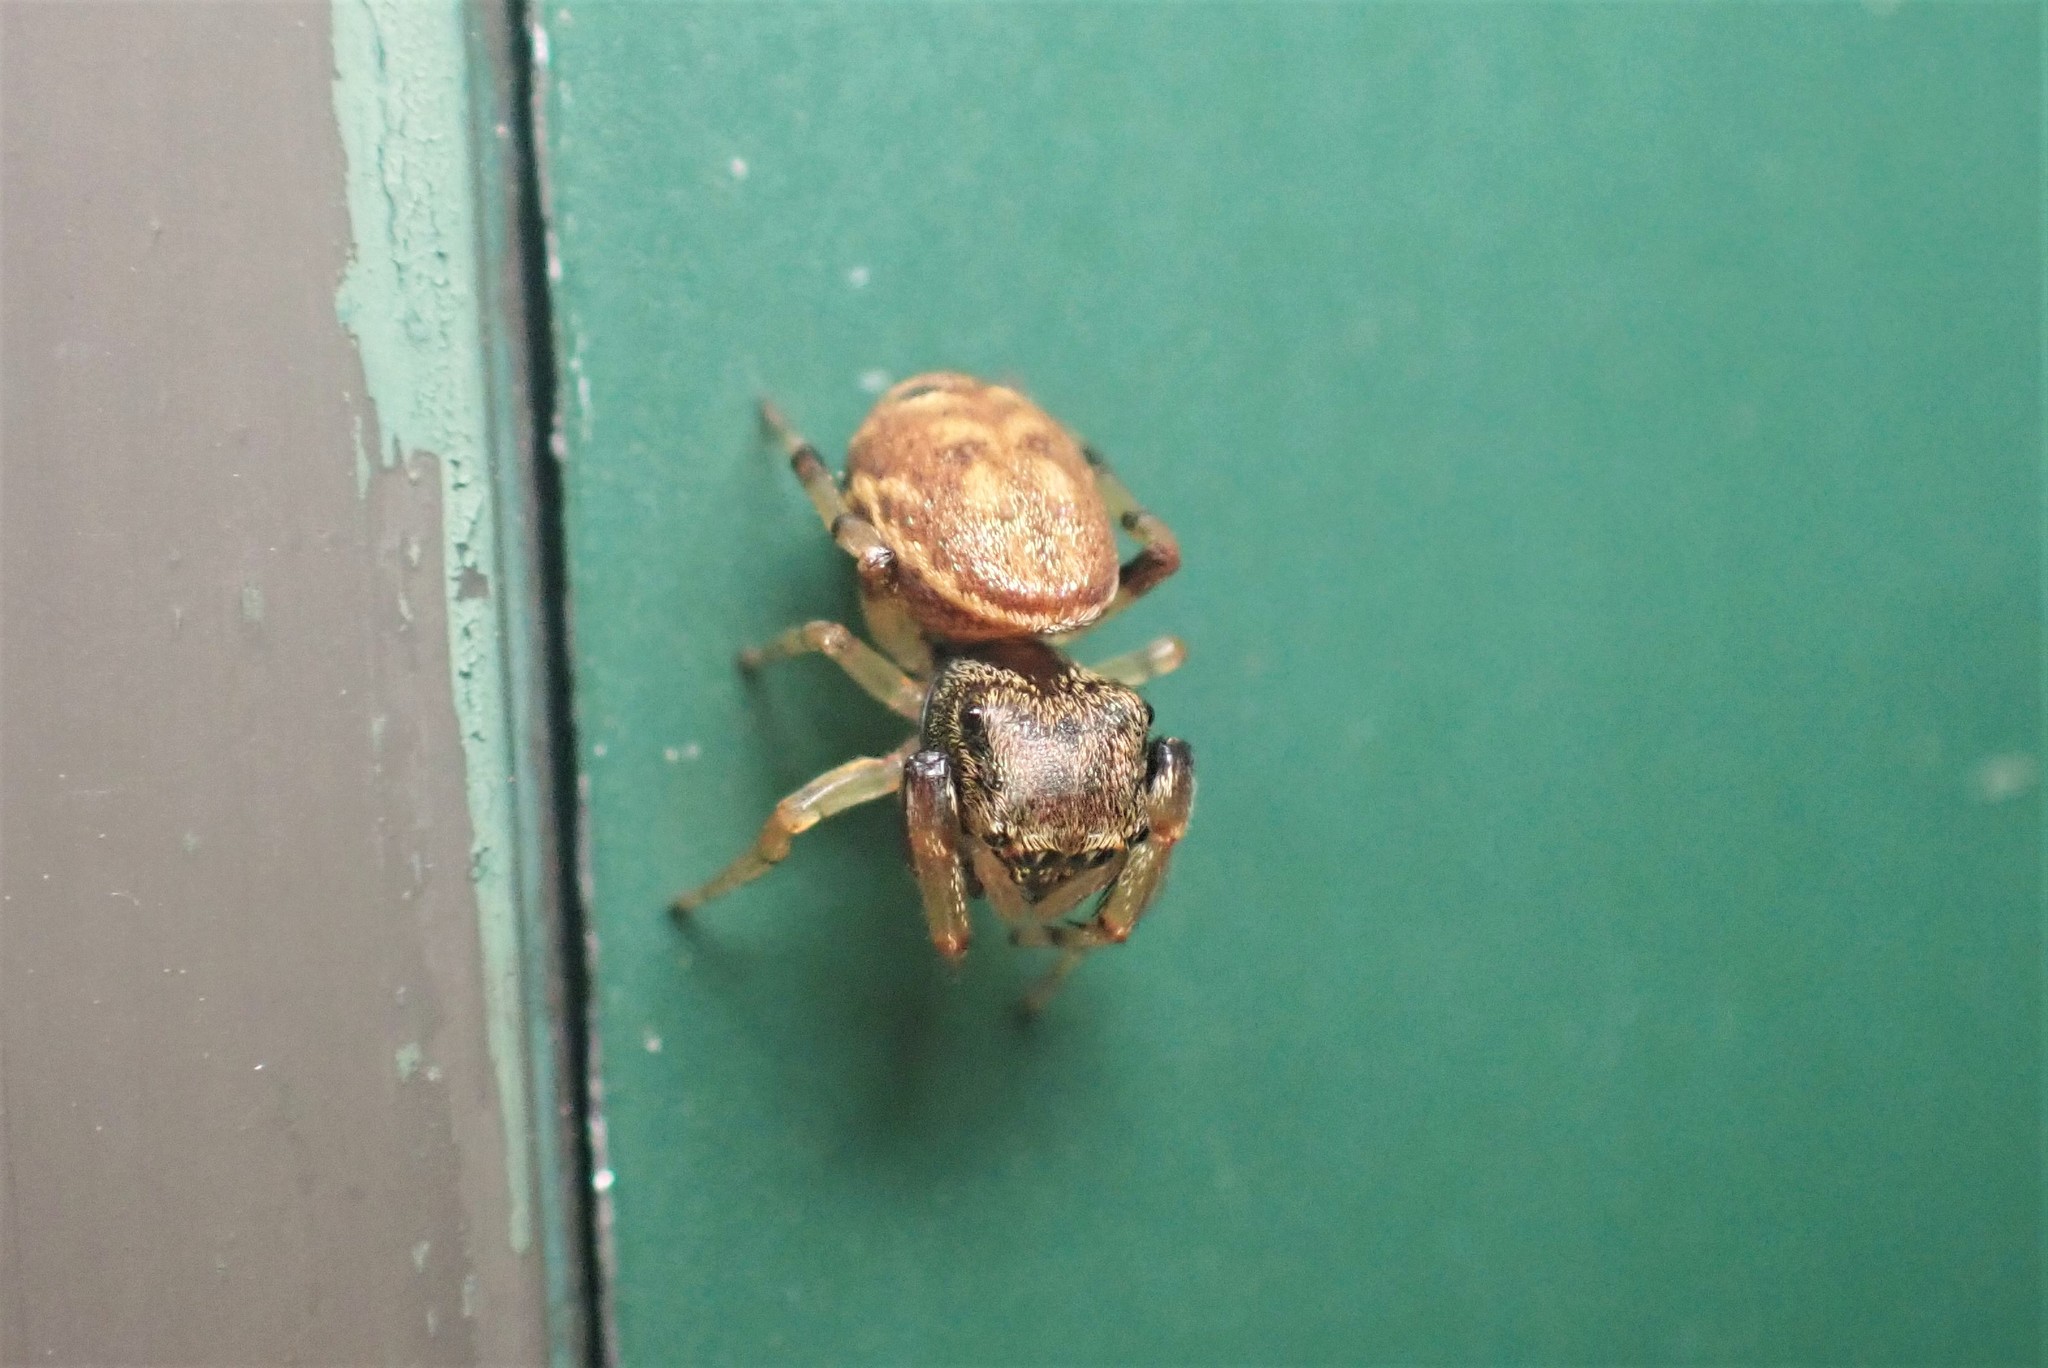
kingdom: Animalia
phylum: Arthropoda
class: Arachnida
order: Araneae
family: Salticidae
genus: Zygoballus
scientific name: Zygoballus rufipes
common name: Jumping spiders
